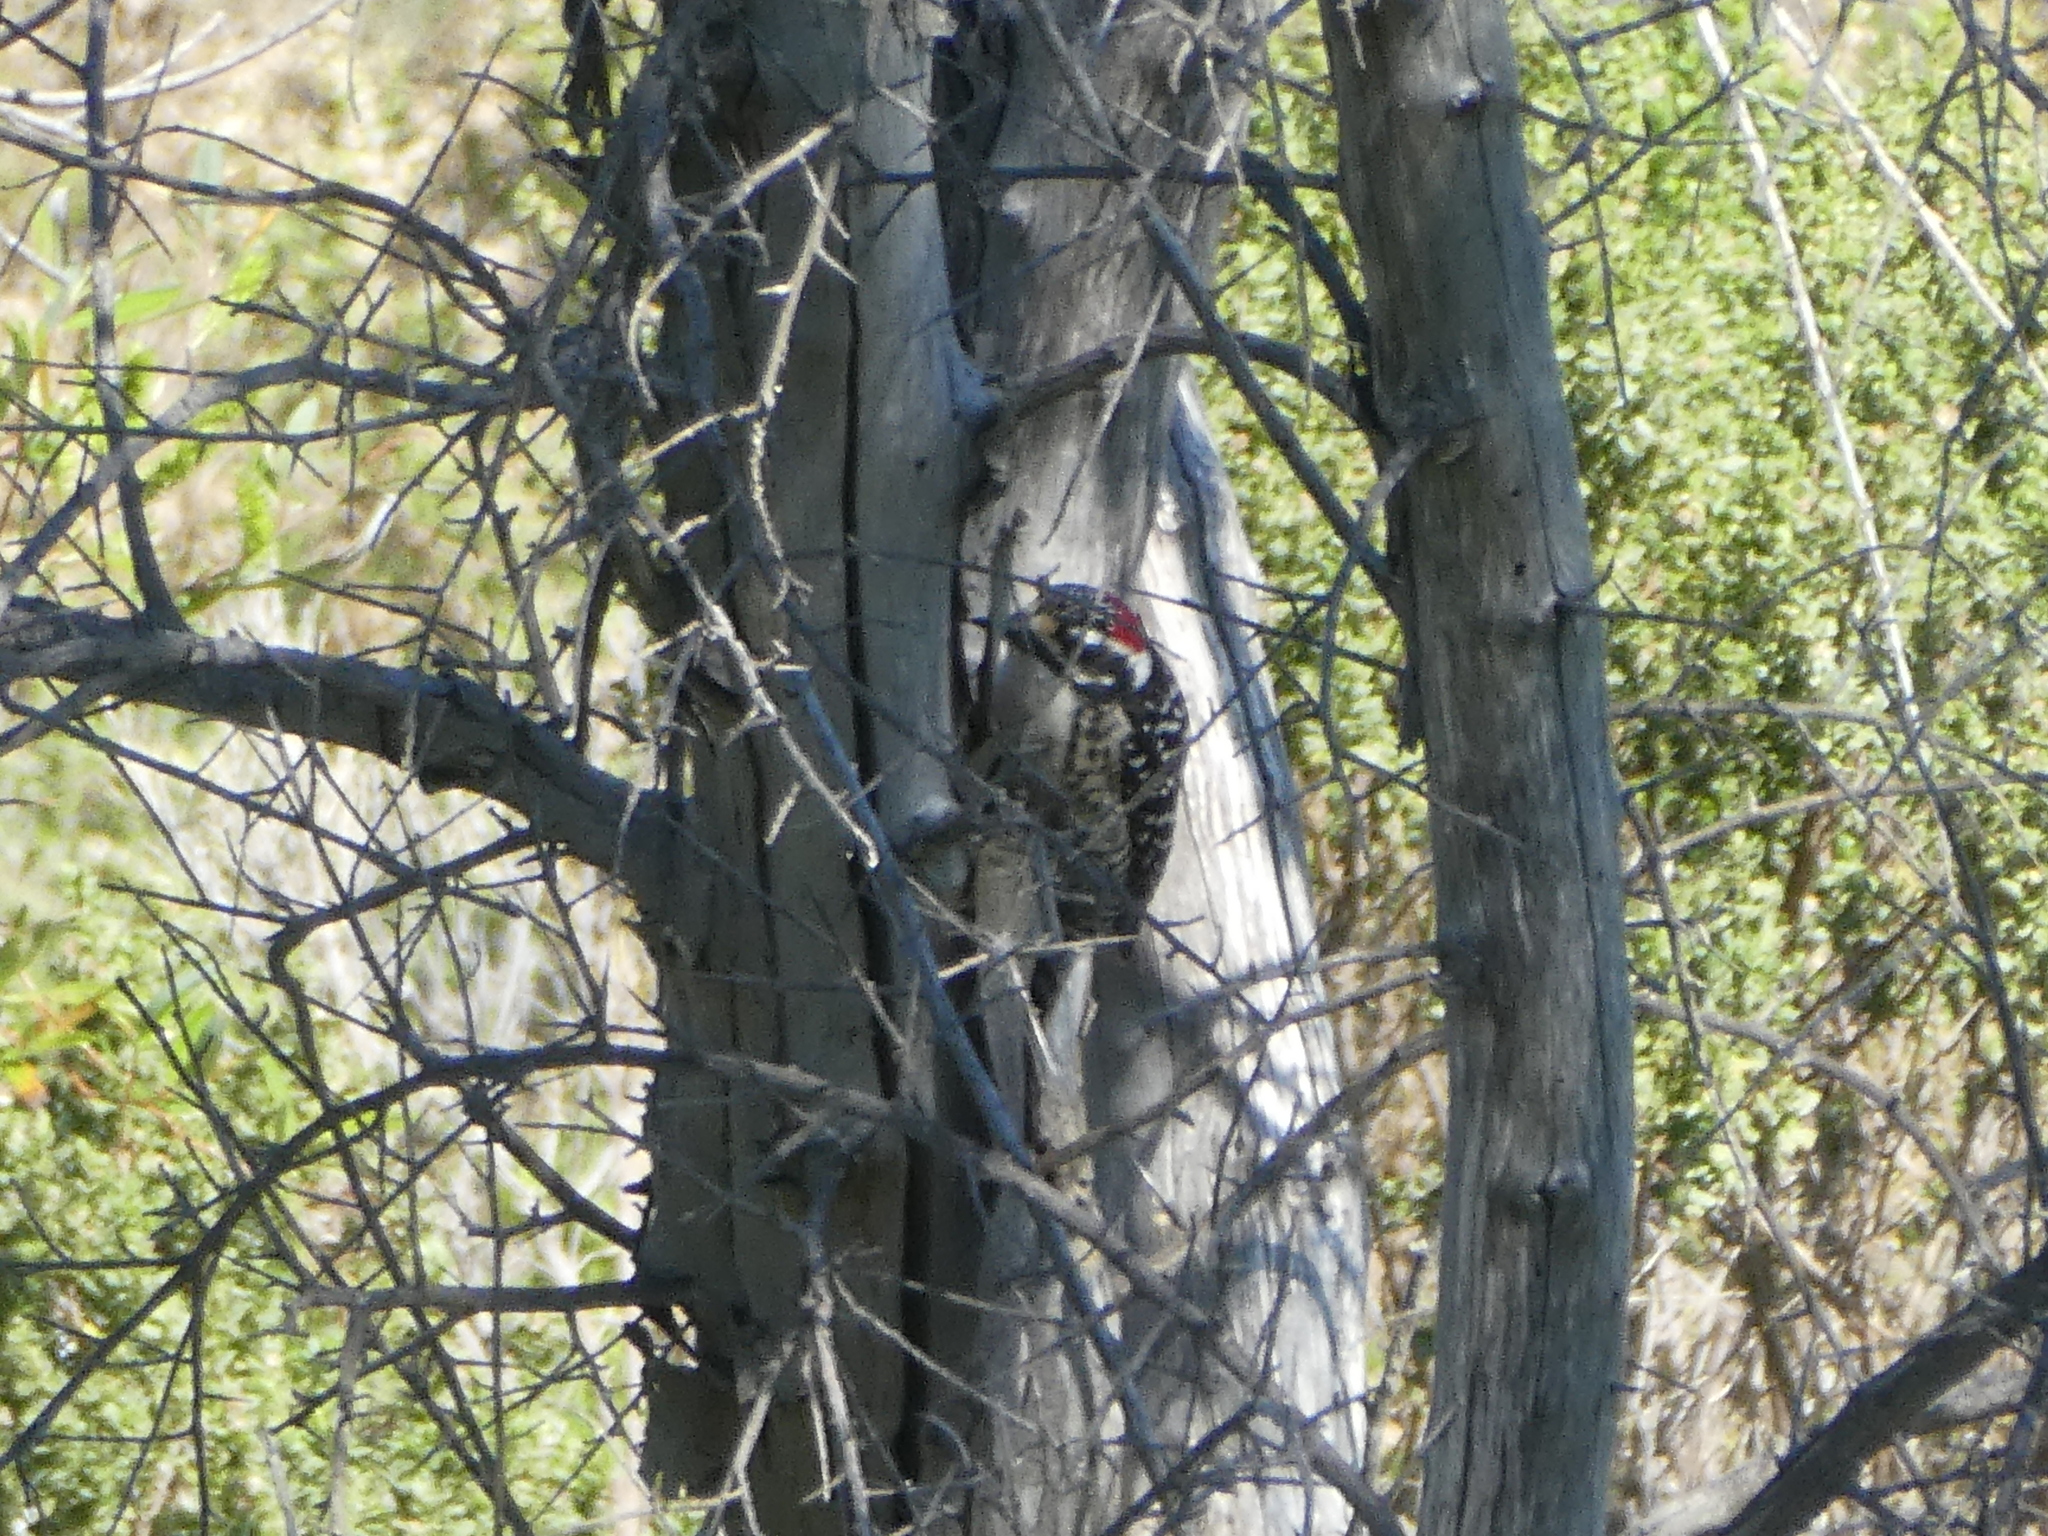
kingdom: Animalia
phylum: Chordata
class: Aves
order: Piciformes
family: Picidae
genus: Dryobates
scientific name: Dryobates nuttallii
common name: Nuttall's woodpecker
